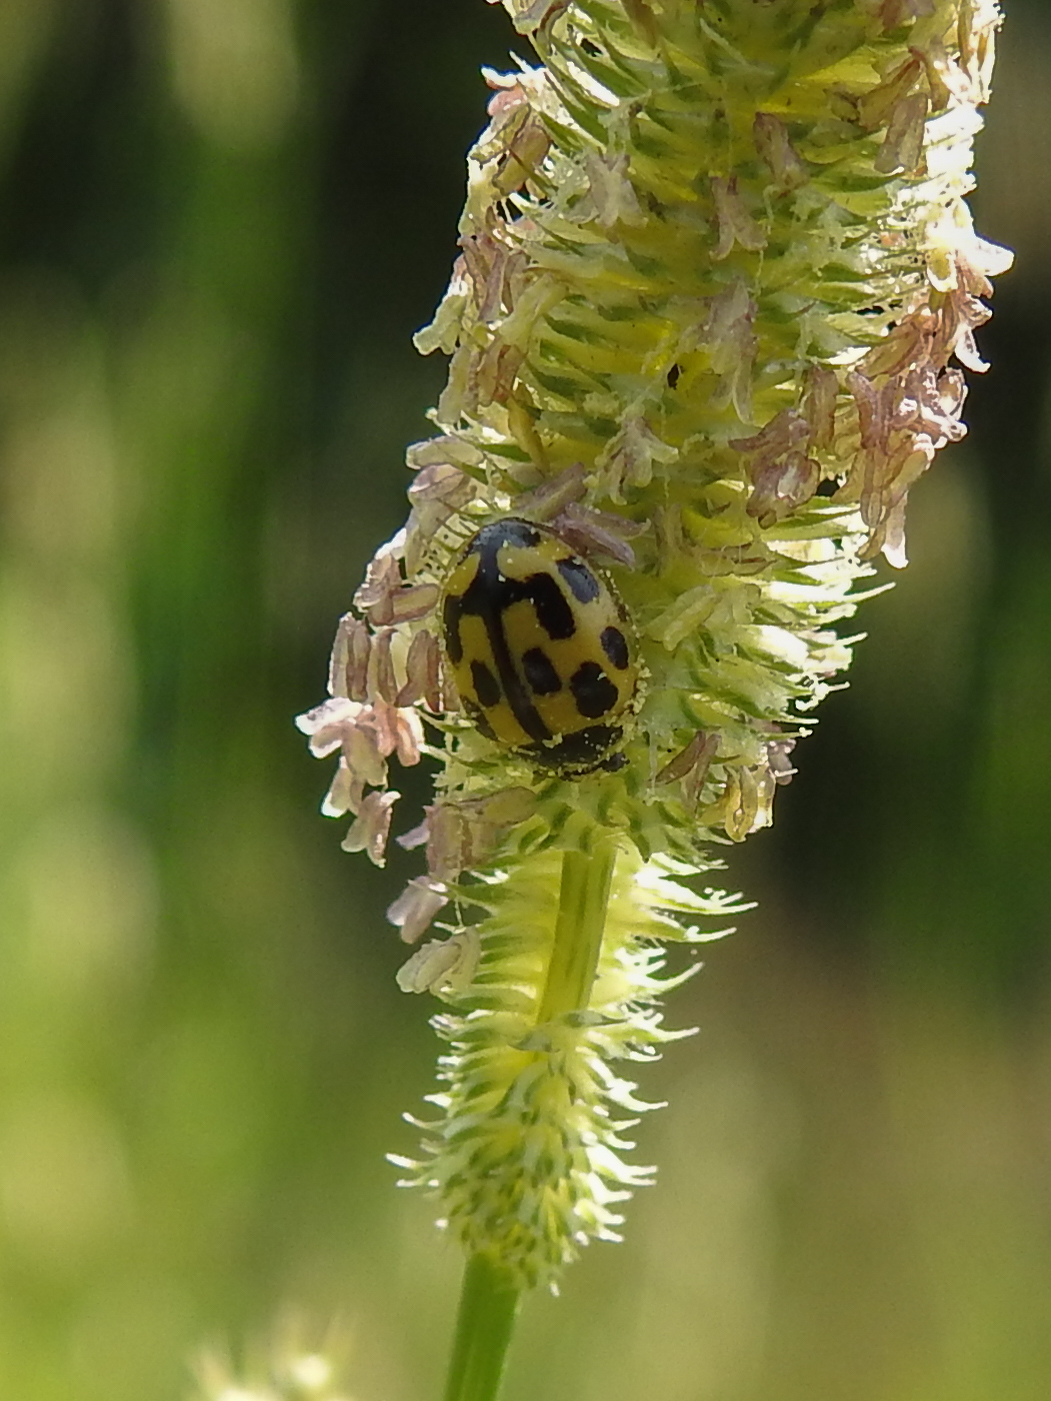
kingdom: Animalia
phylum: Arthropoda
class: Insecta
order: Coleoptera
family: Coccinellidae
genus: Propylaea
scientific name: Propylaea quatuordecimpunctata
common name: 14-spotted ladybird beetle
